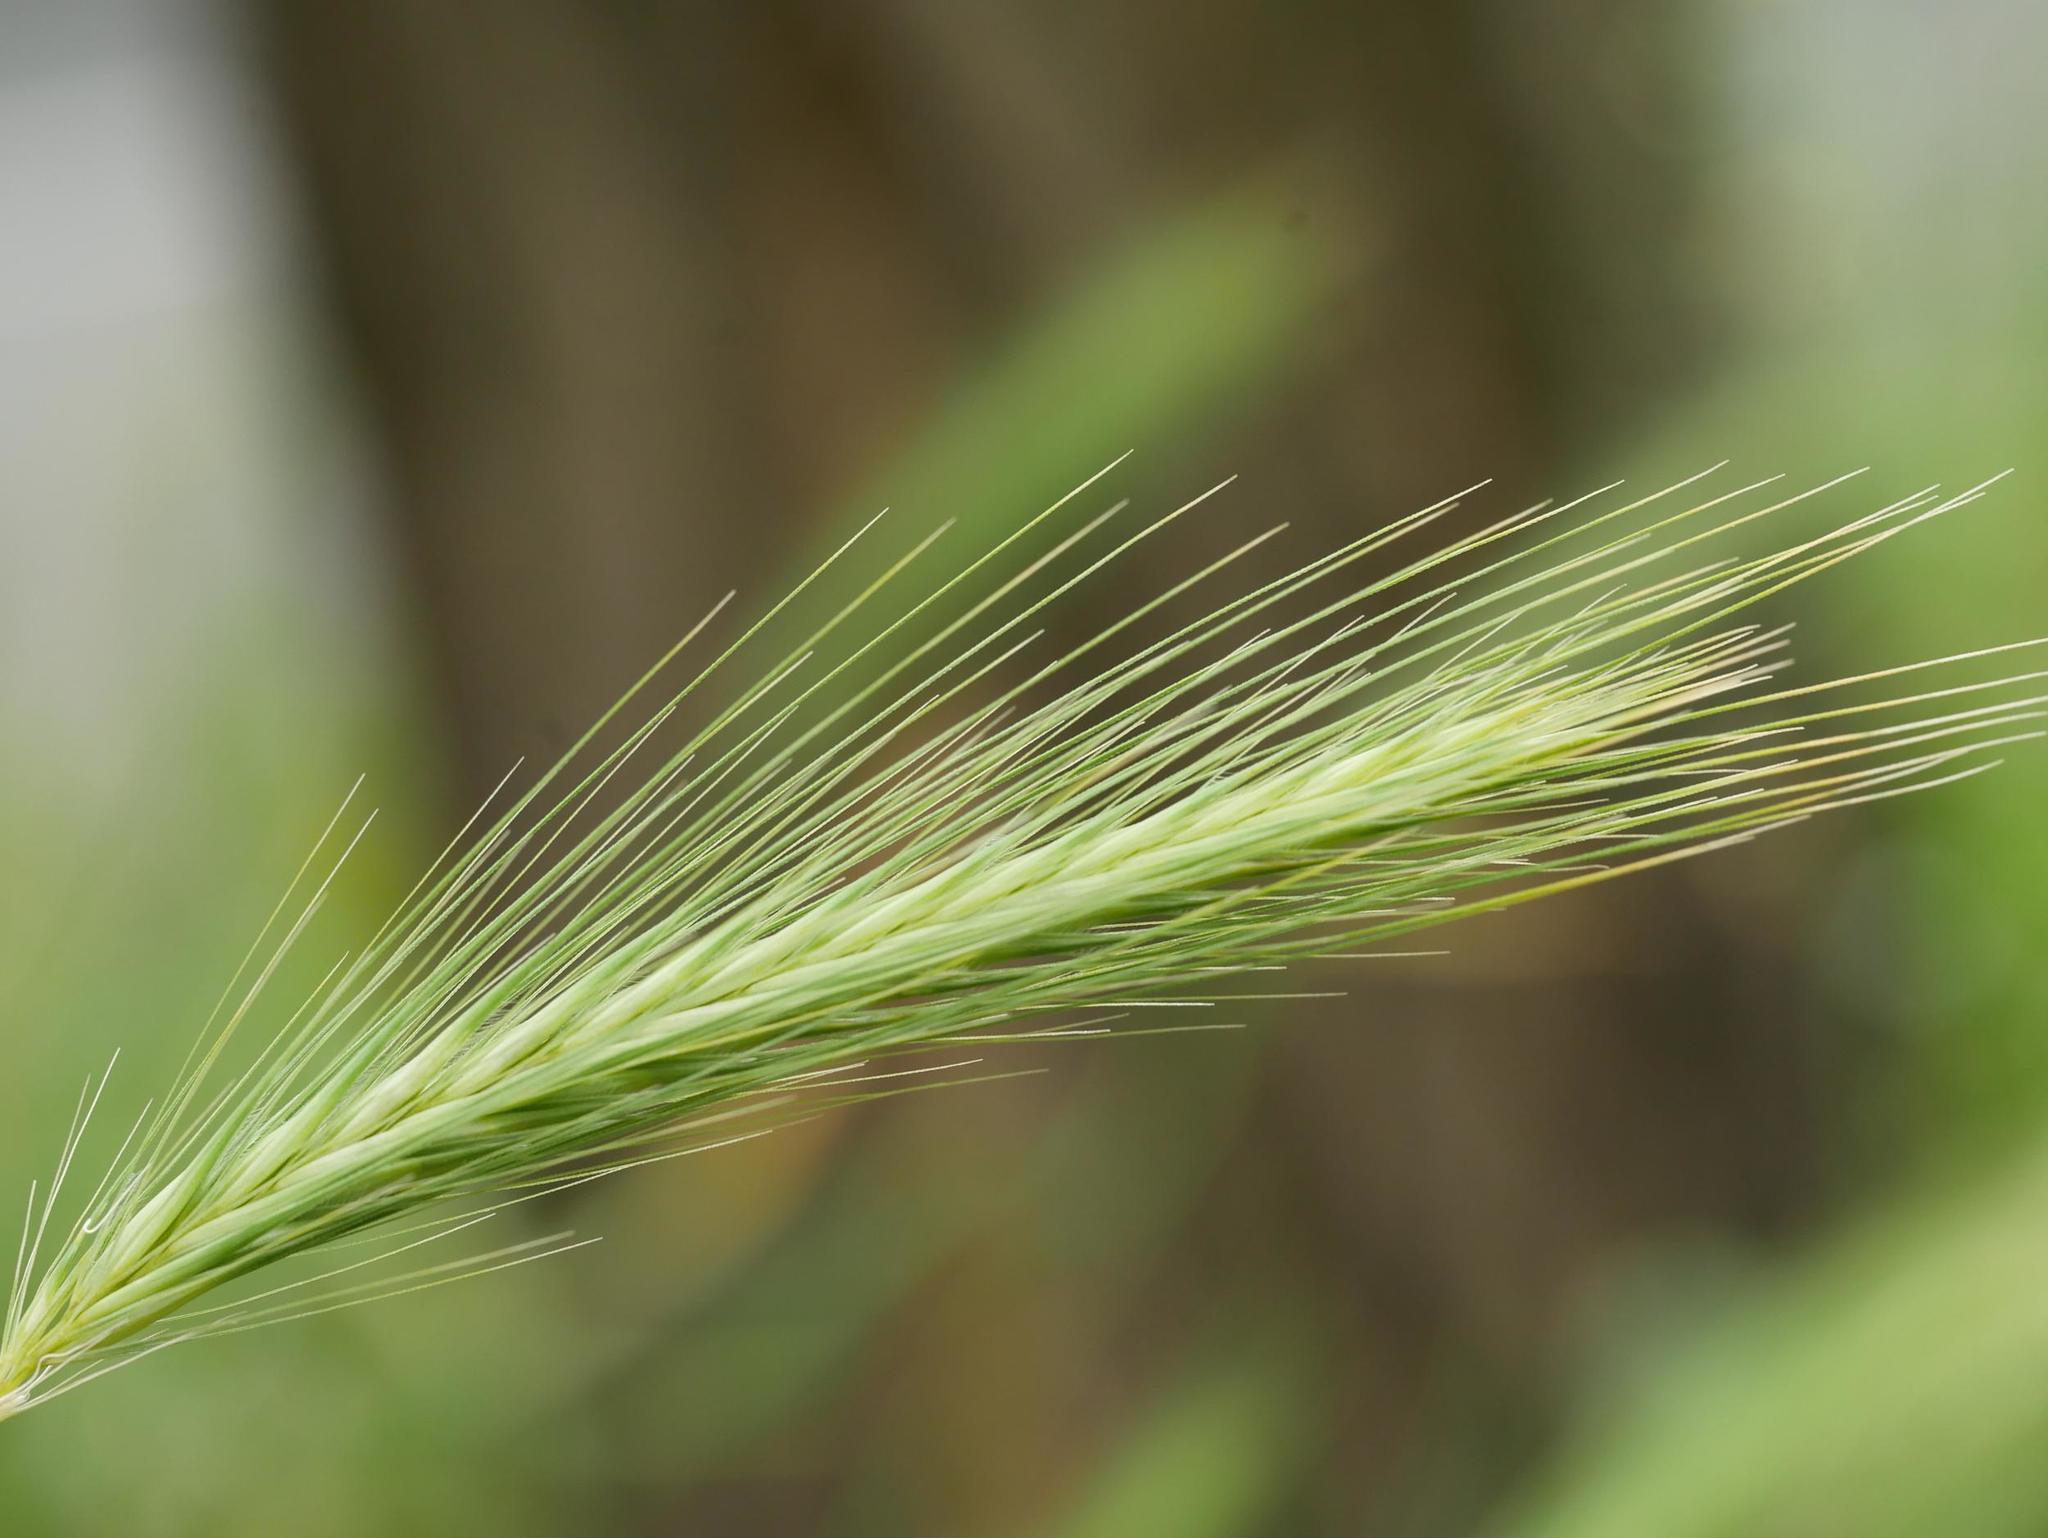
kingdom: Plantae
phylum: Tracheophyta
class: Liliopsida
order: Poales
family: Poaceae
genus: Hordeum
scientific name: Hordeum murinum
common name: Wall barley
